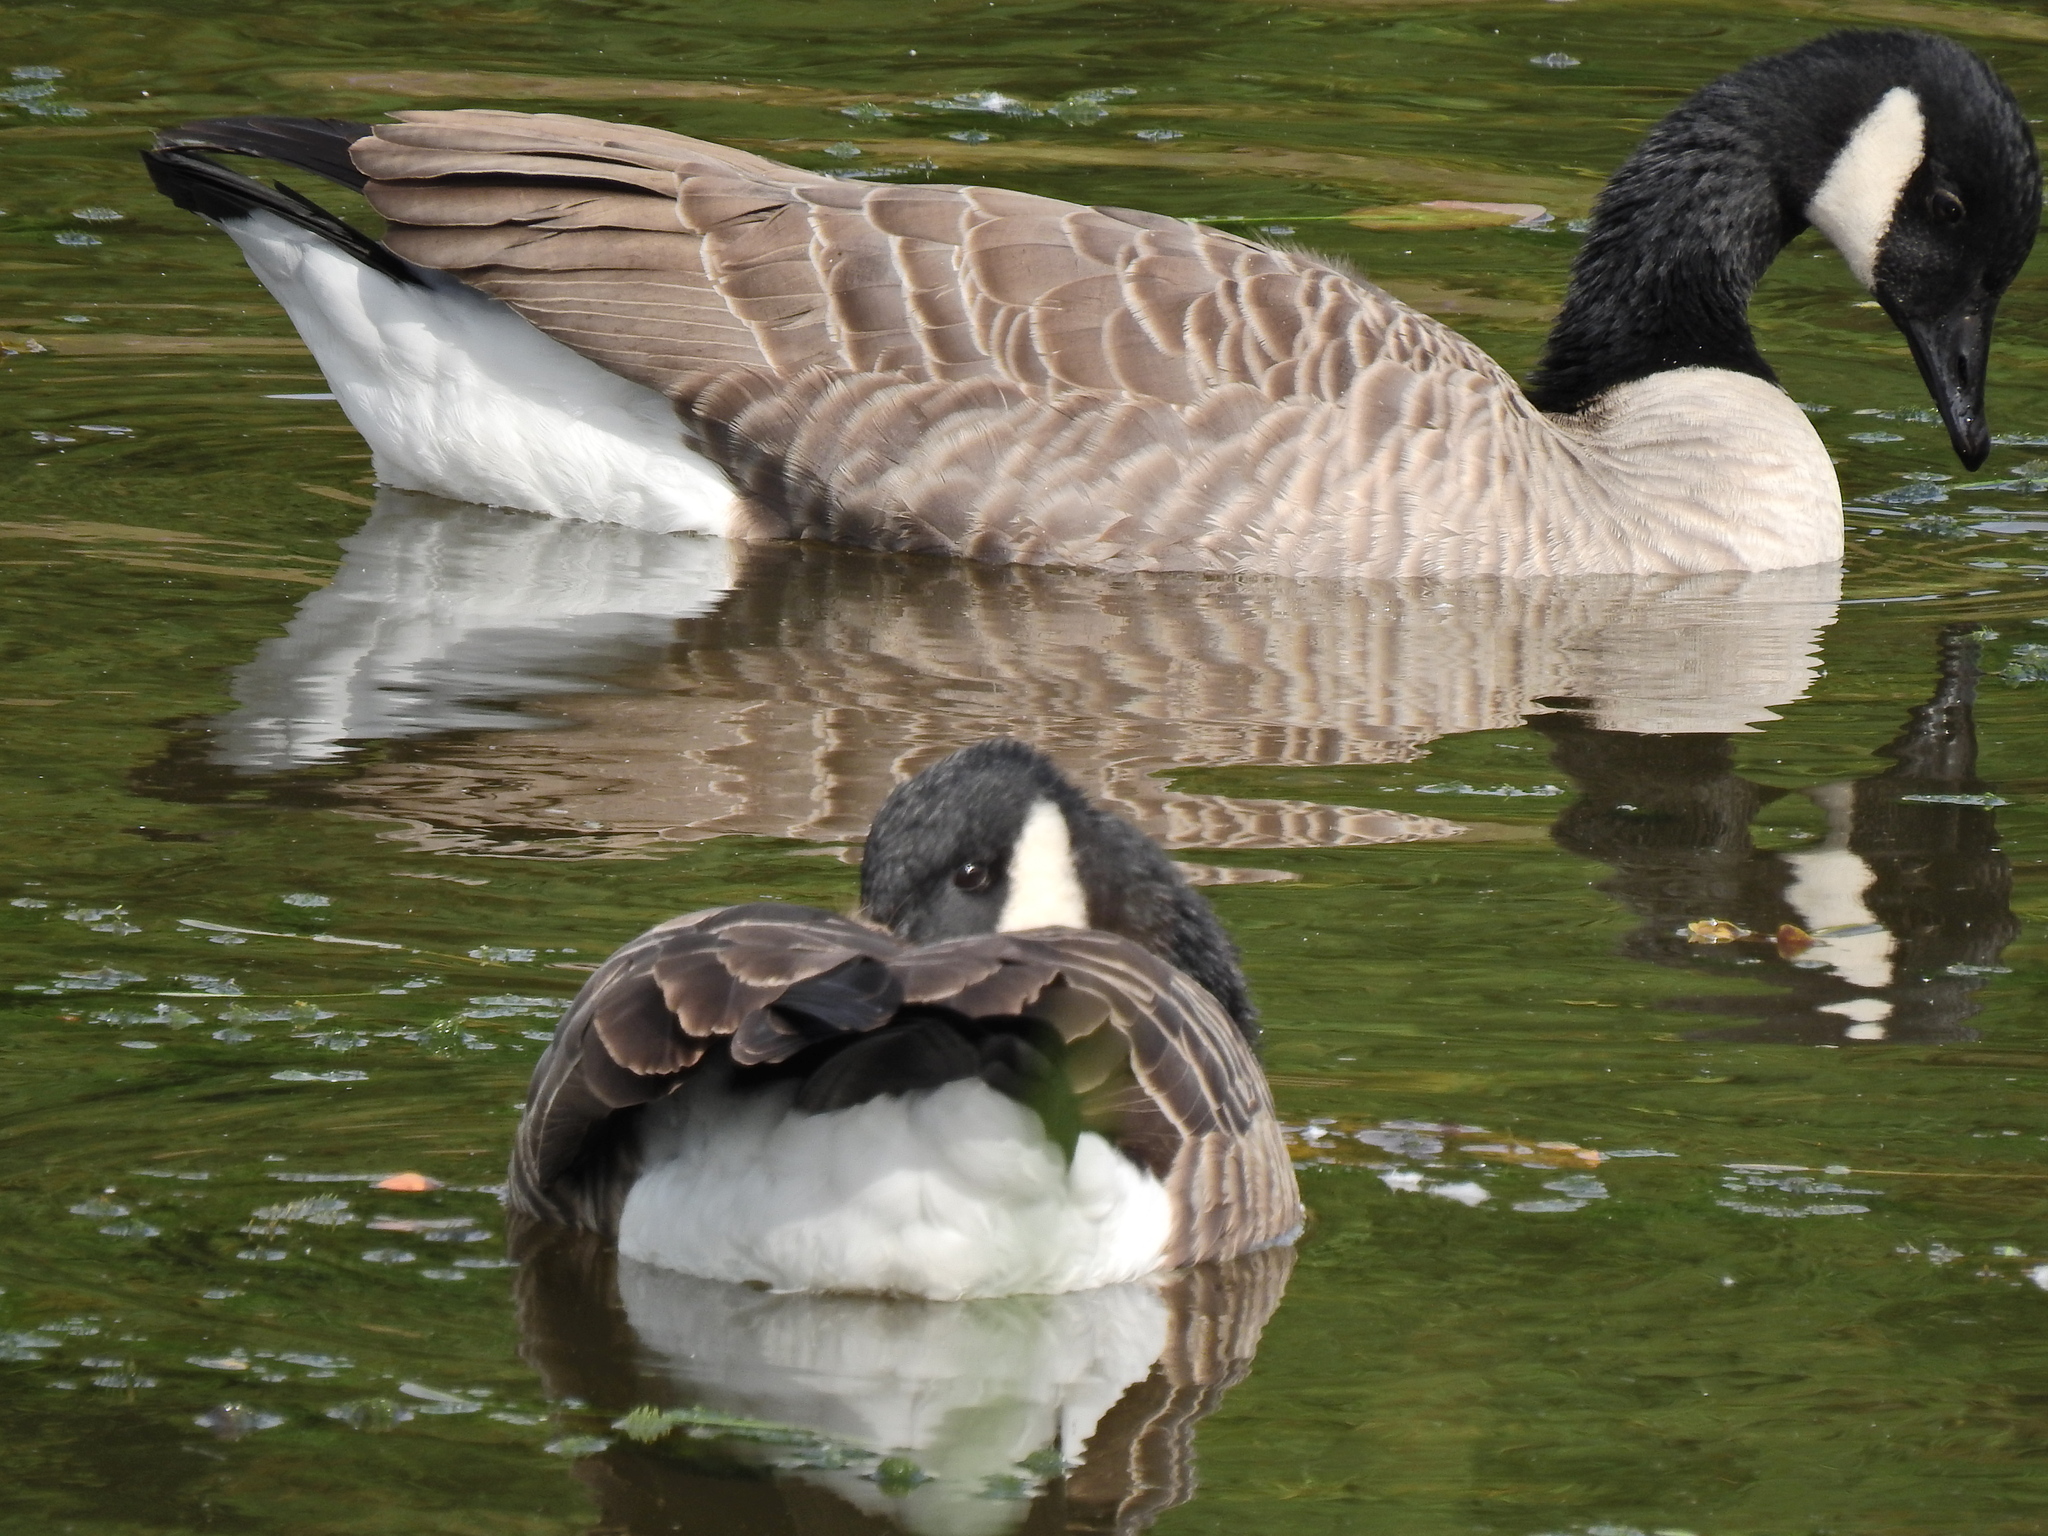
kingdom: Animalia
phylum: Chordata
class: Aves
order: Anseriformes
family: Anatidae
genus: Branta
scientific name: Branta canadensis
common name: Canada goose
